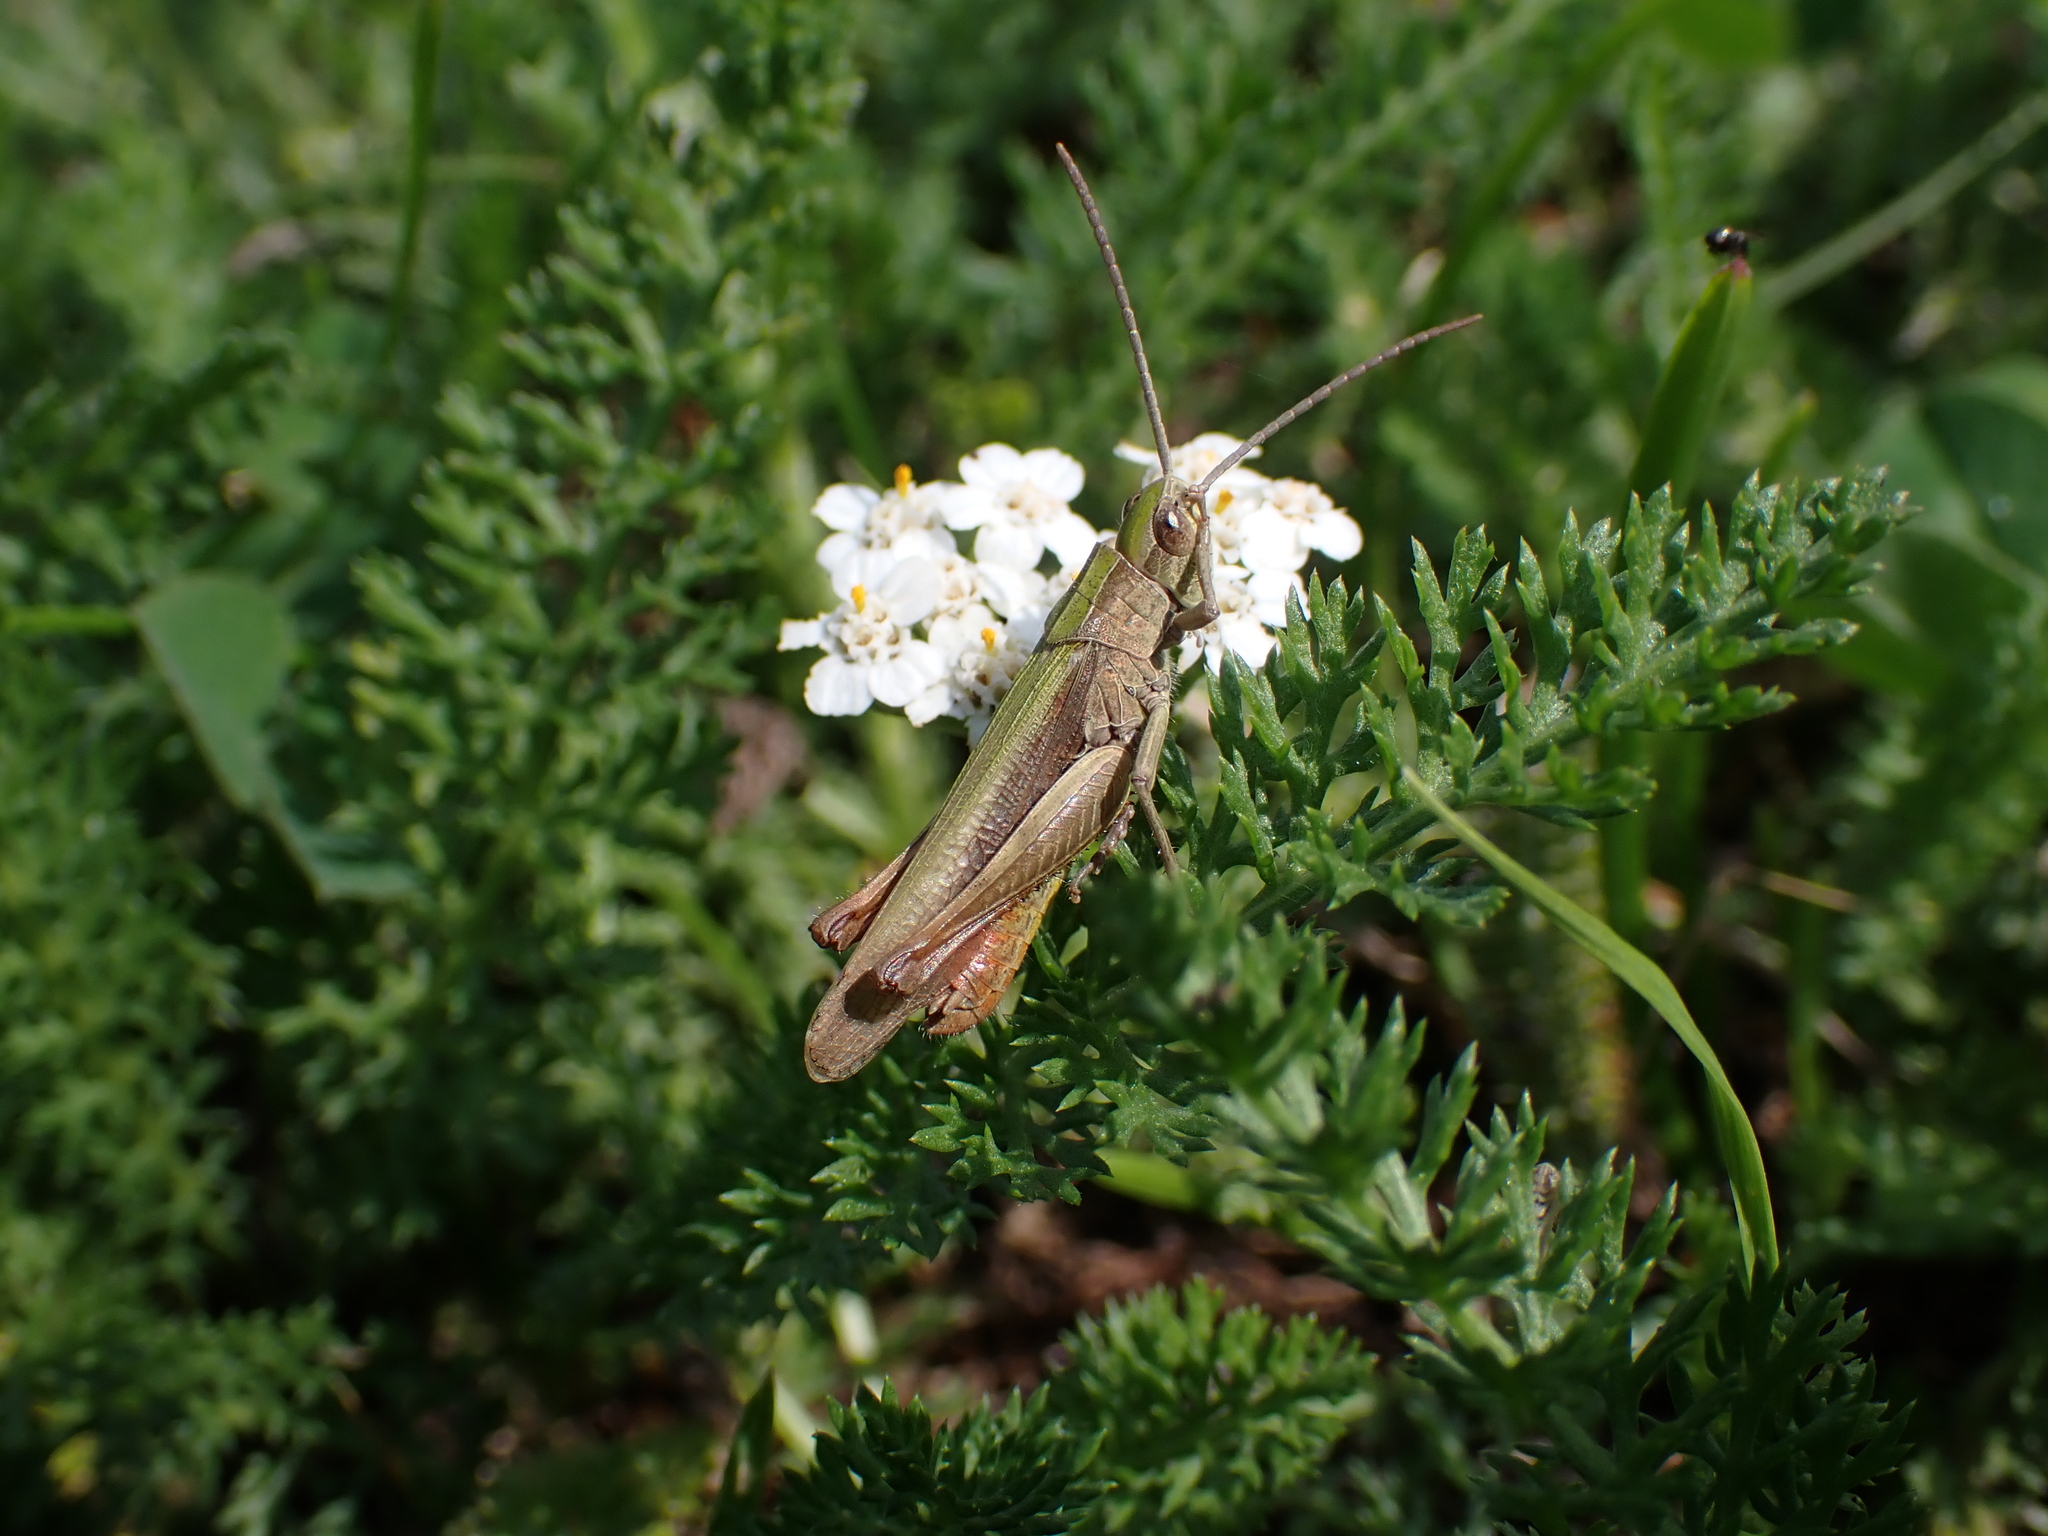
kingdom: Animalia
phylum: Arthropoda
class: Insecta
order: Orthoptera
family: Acrididae
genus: Chorthippus
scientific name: Chorthippus dorsatus
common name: Steppe grasshopper
